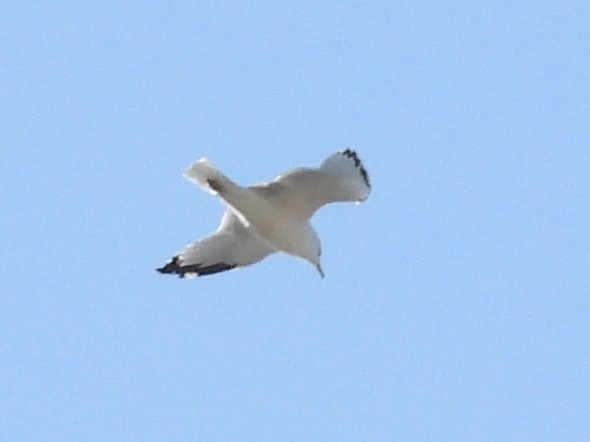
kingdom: Animalia
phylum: Chordata
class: Aves
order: Charadriiformes
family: Laridae
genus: Larus
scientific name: Larus delawarensis
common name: Ring-billed gull
